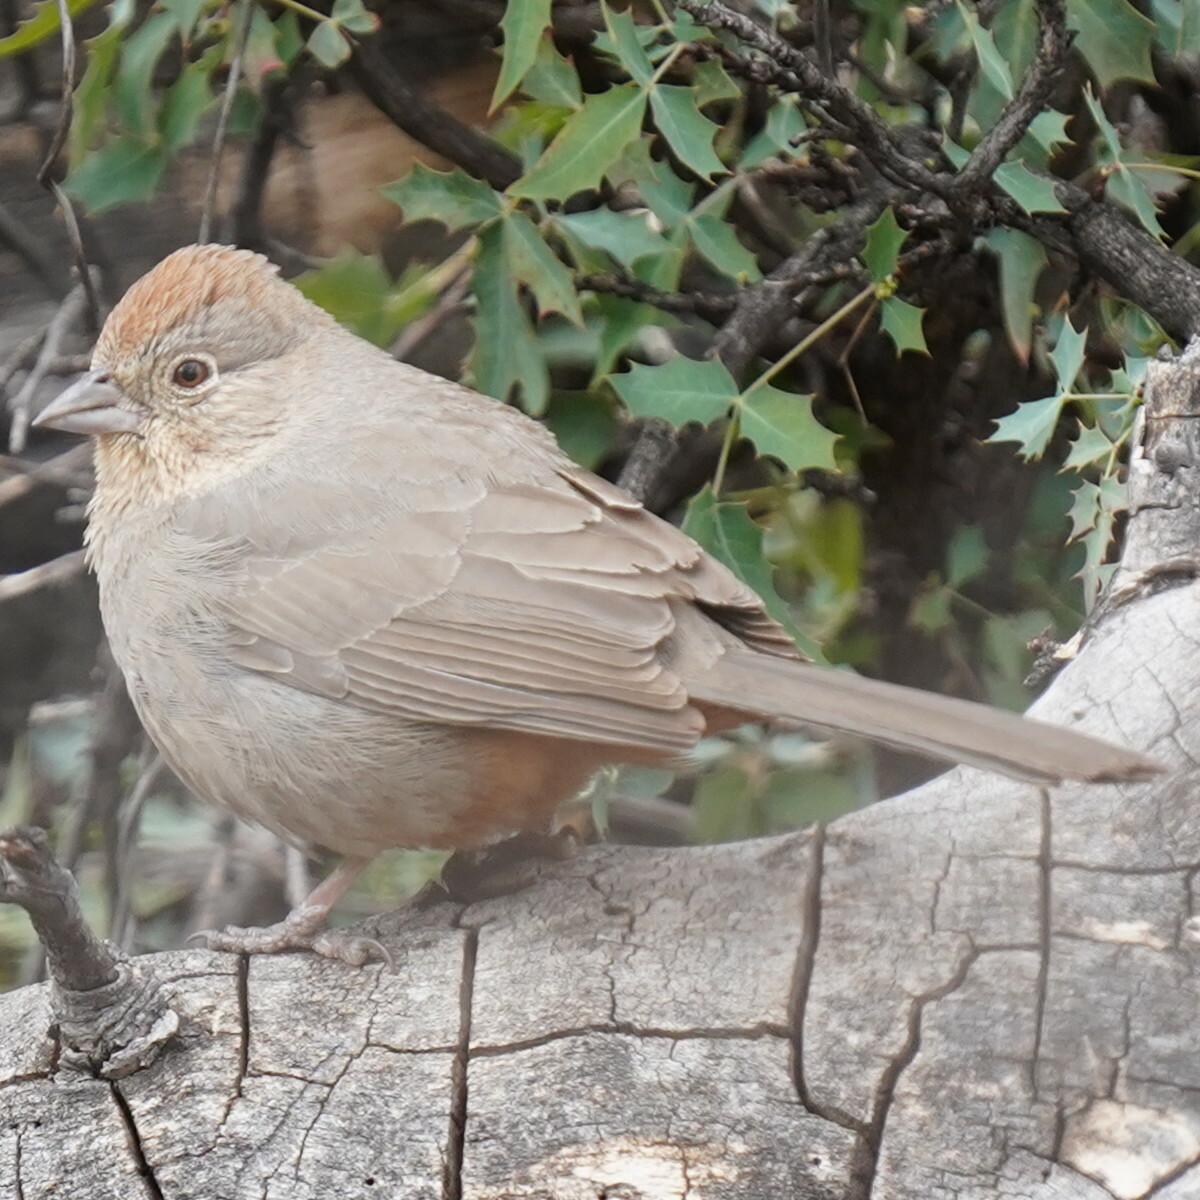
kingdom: Animalia
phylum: Chordata
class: Aves
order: Passeriformes
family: Passerellidae
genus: Melozone
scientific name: Melozone fusca
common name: Canyon towhee
